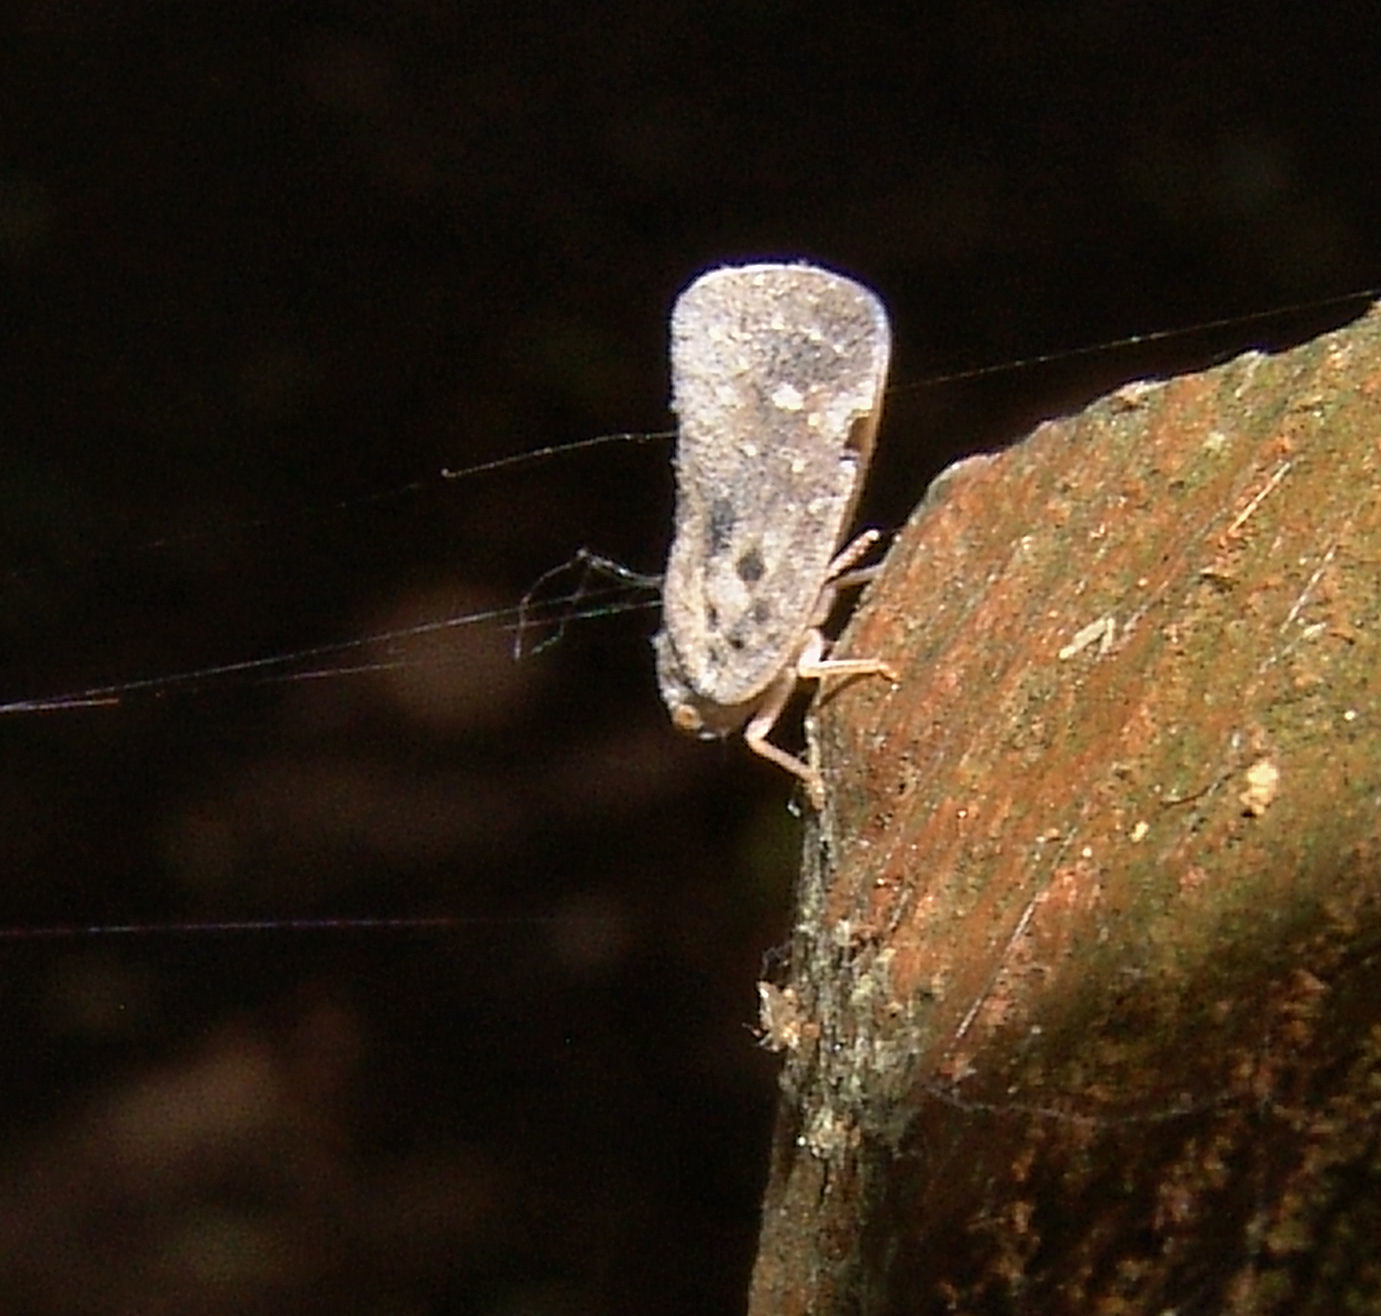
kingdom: Animalia
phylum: Arthropoda
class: Insecta
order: Hemiptera
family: Flatidae
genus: Metcalfa
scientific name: Metcalfa pruinosa
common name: Citrus flatid planthopper
